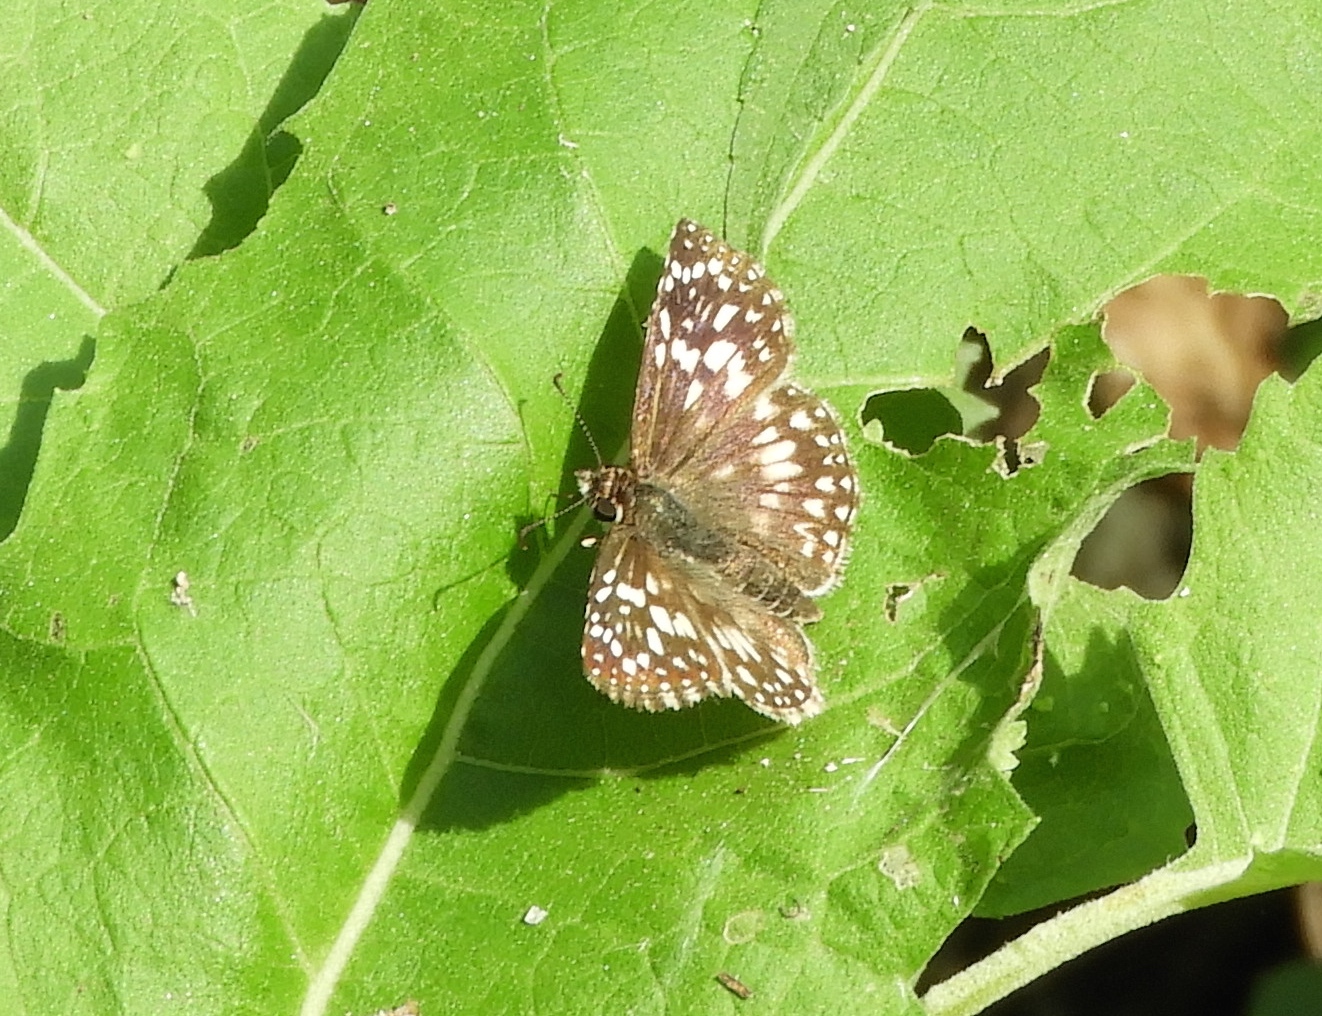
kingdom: Animalia
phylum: Arthropoda
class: Insecta
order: Lepidoptera
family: Hesperiidae
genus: Pyrgus
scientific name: Pyrgus oileus
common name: Tropical checkered-skipper
